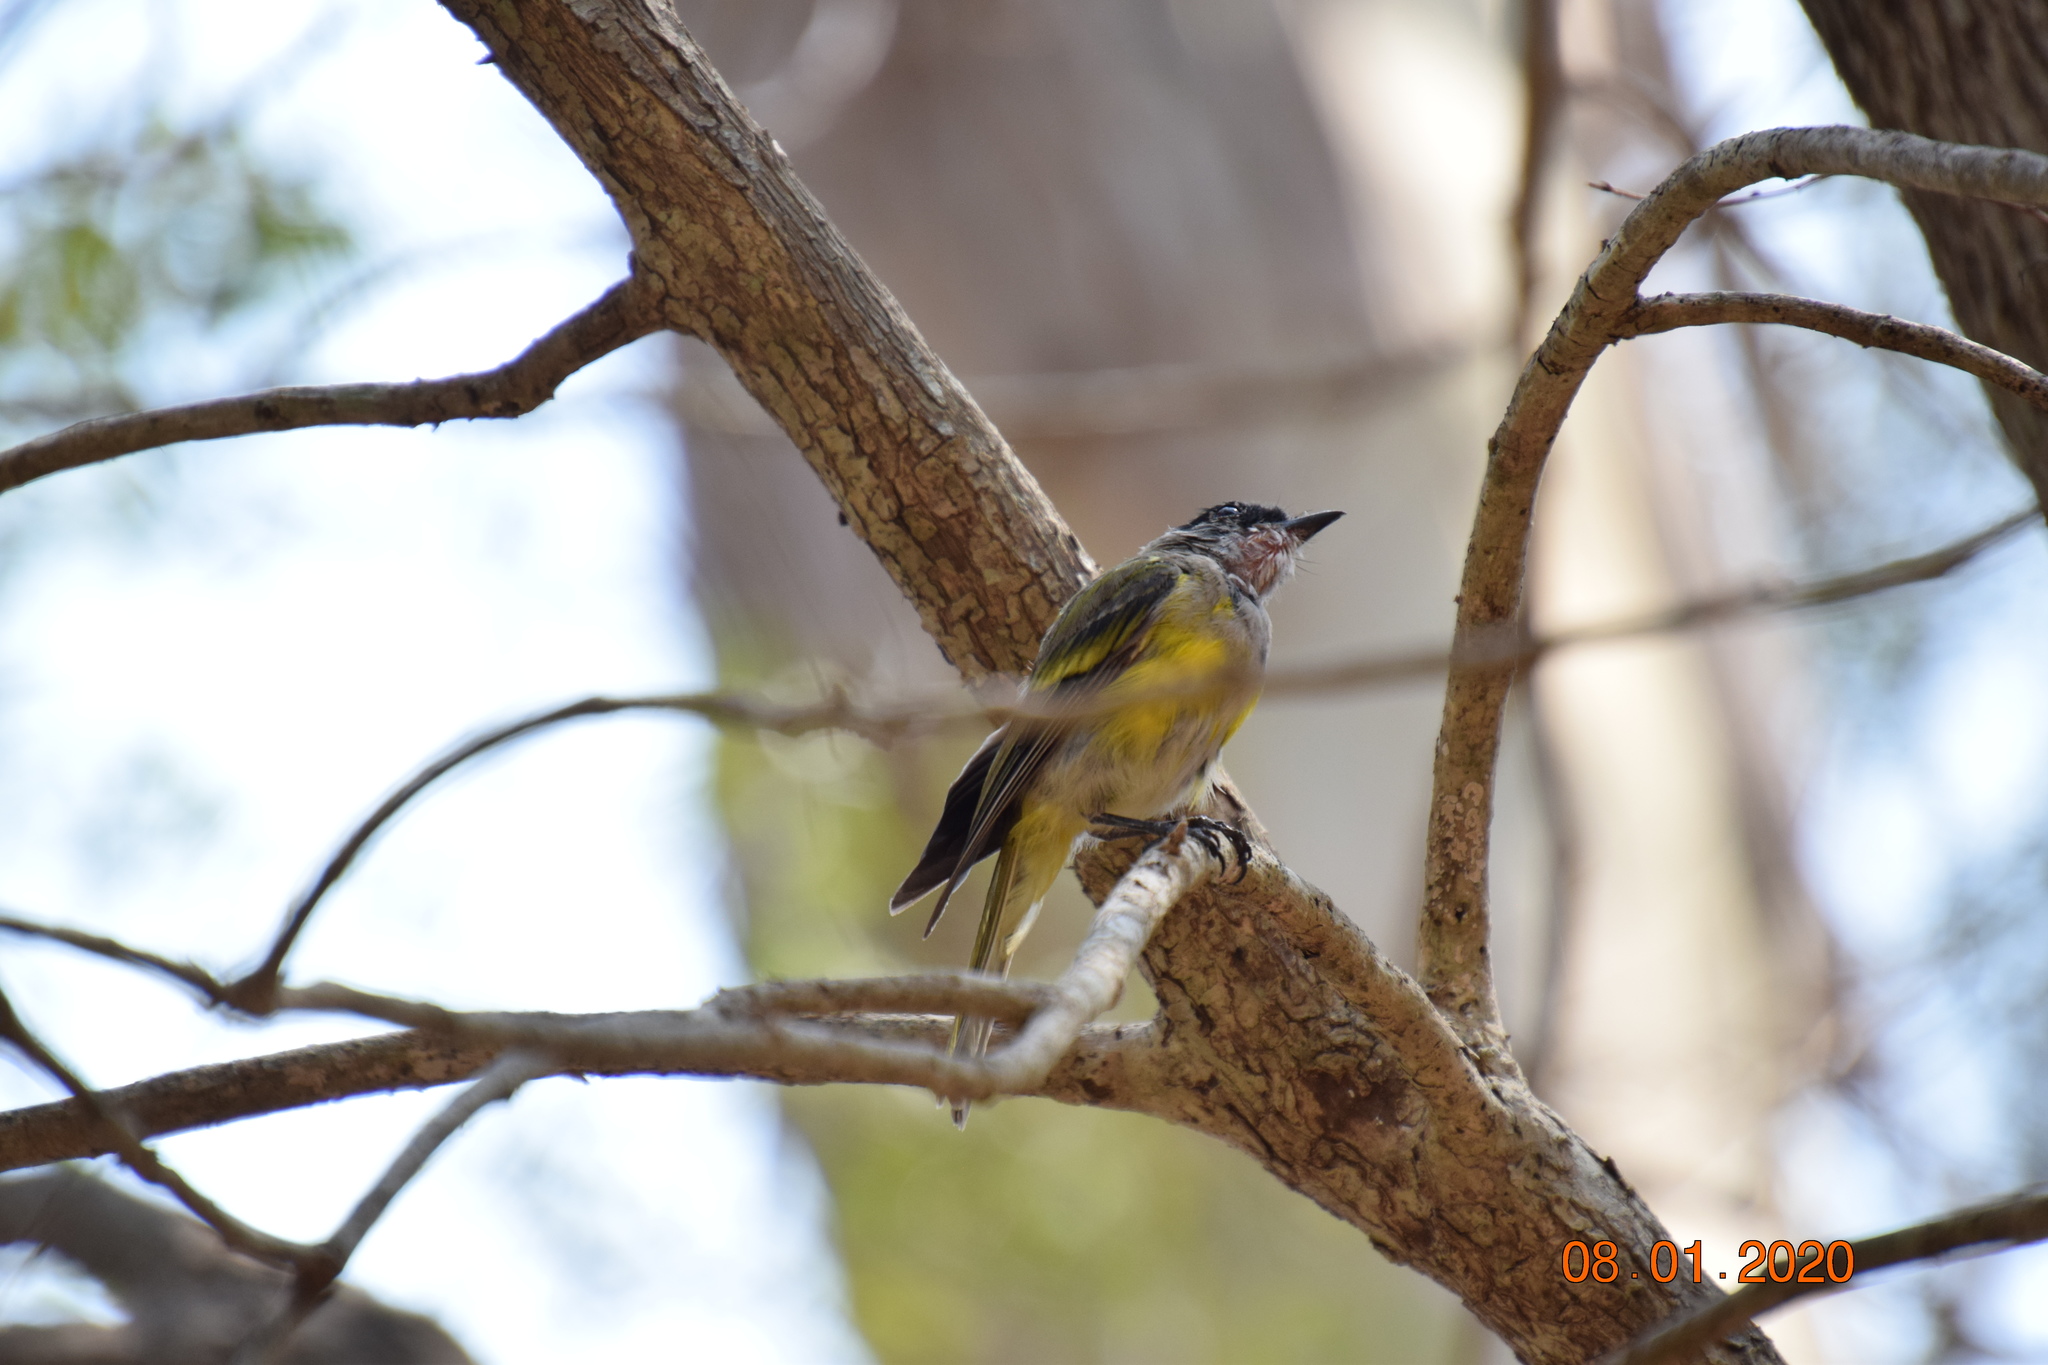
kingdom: Animalia
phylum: Chordata
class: Aves
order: Passeriformes
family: Petroicidae
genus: Eopsaltria
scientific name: Eopsaltria australis
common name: Eastern yellow robin
